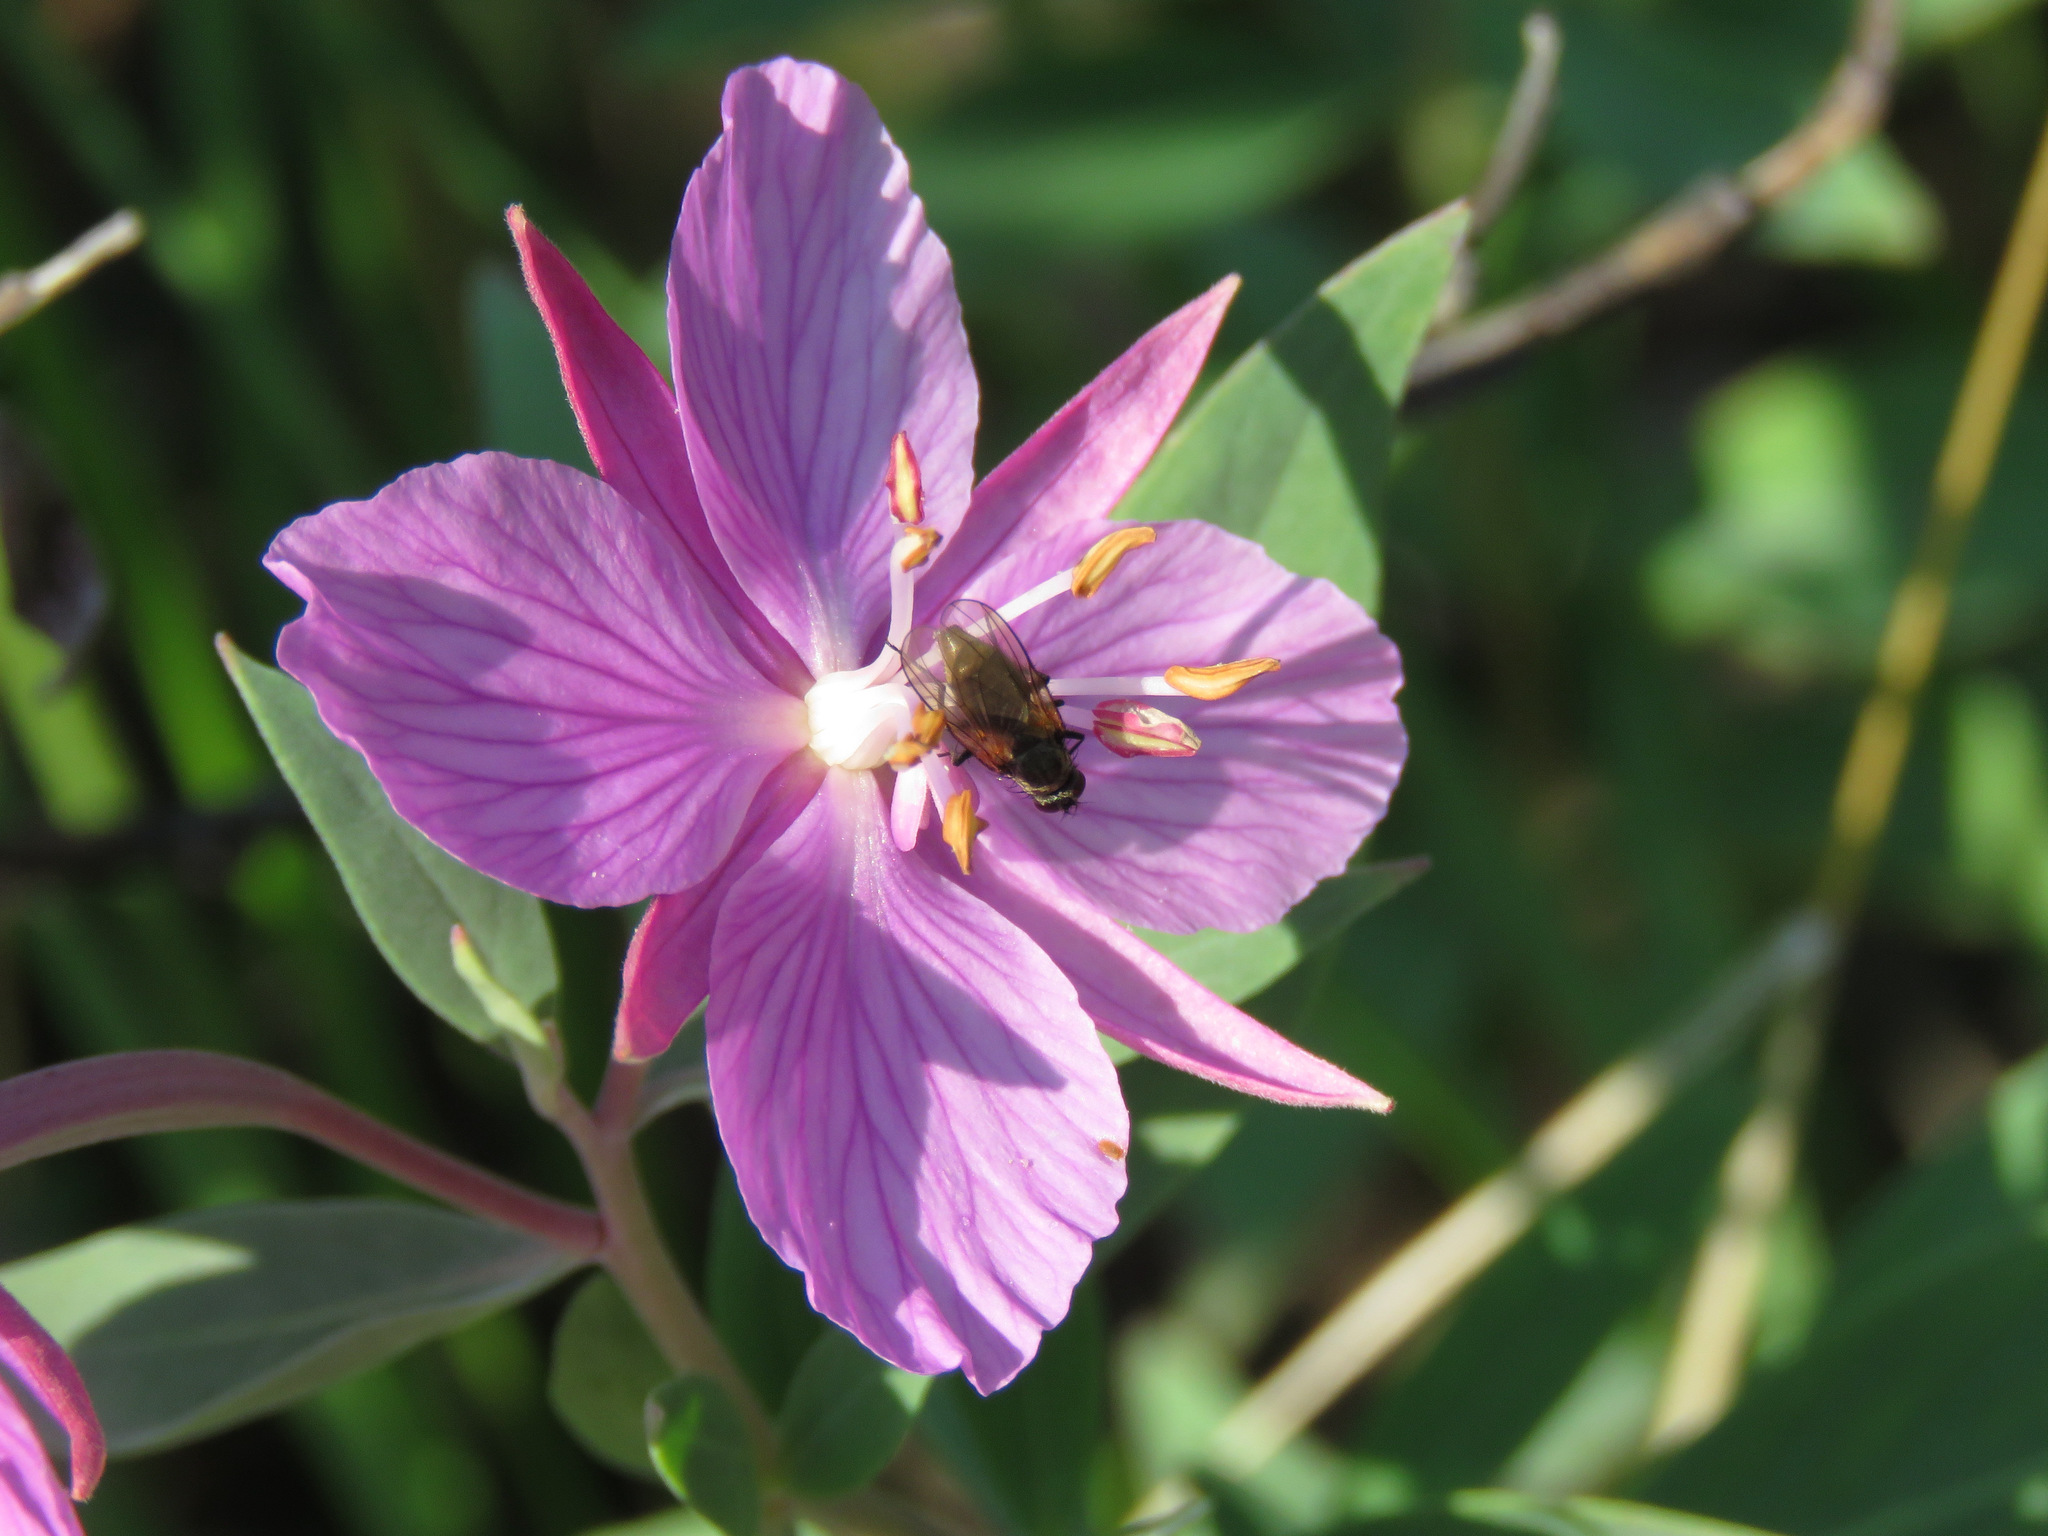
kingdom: Plantae
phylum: Tracheophyta
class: Magnoliopsida
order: Myrtales
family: Onagraceae
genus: Chamaenerion
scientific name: Chamaenerion latifolium
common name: Dwarf fireweed
